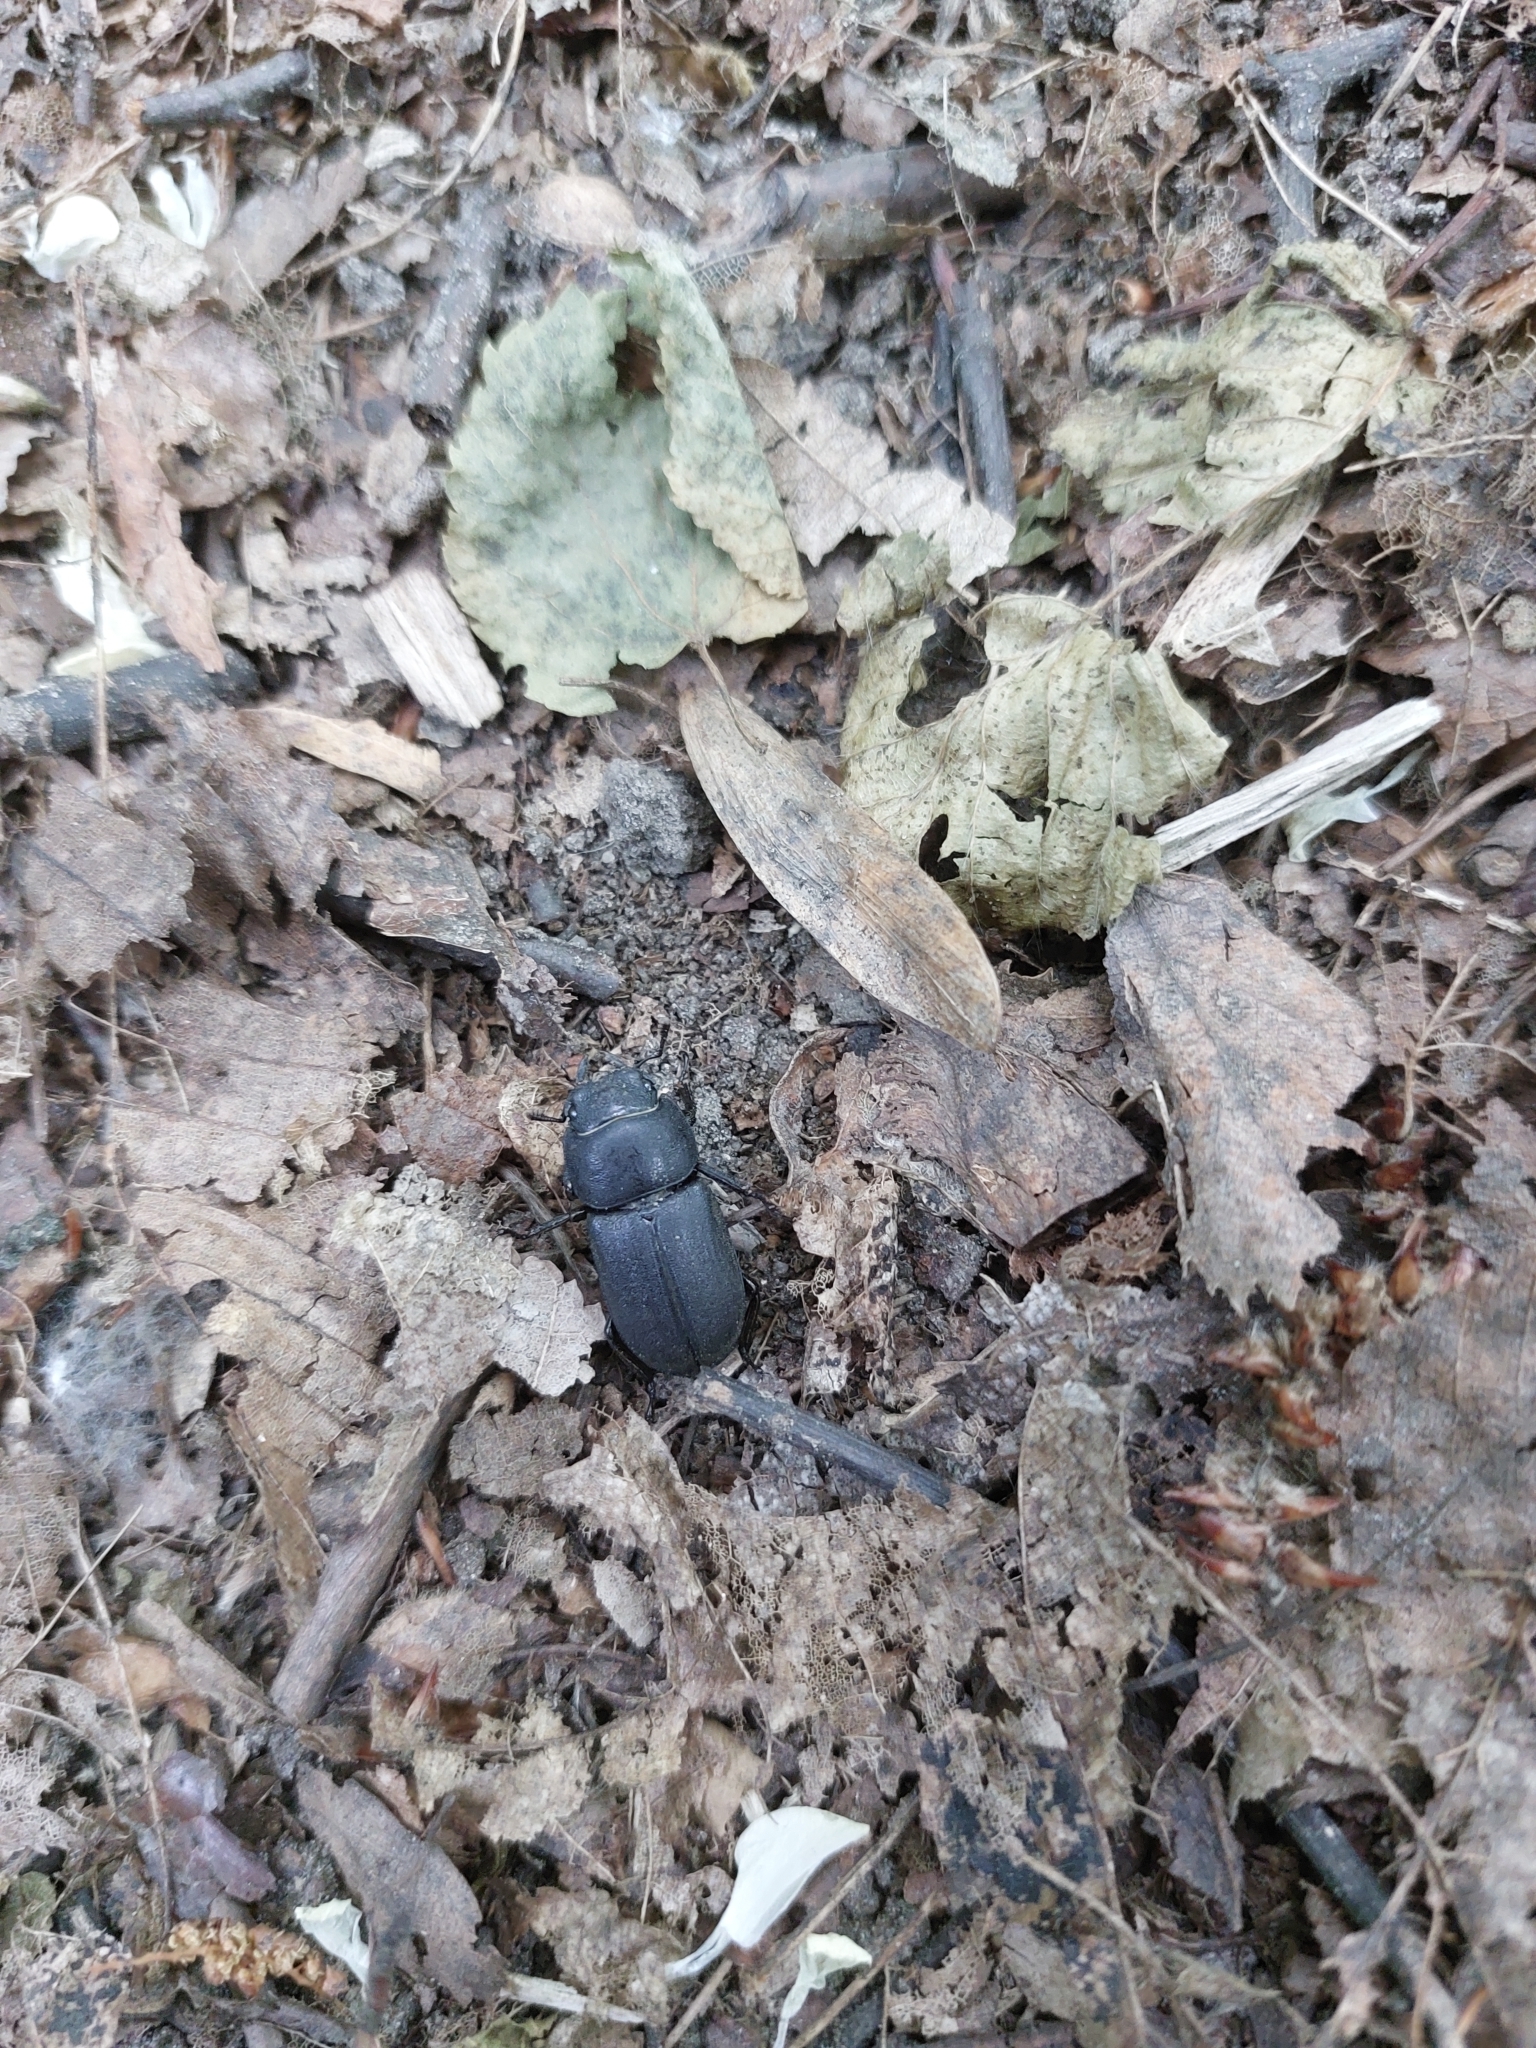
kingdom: Animalia
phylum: Arthropoda
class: Insecta
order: Coleoptera
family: Lucanidae
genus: Dorcus
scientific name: Dorcus parallelipipedus
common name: Lesser stag beetle
